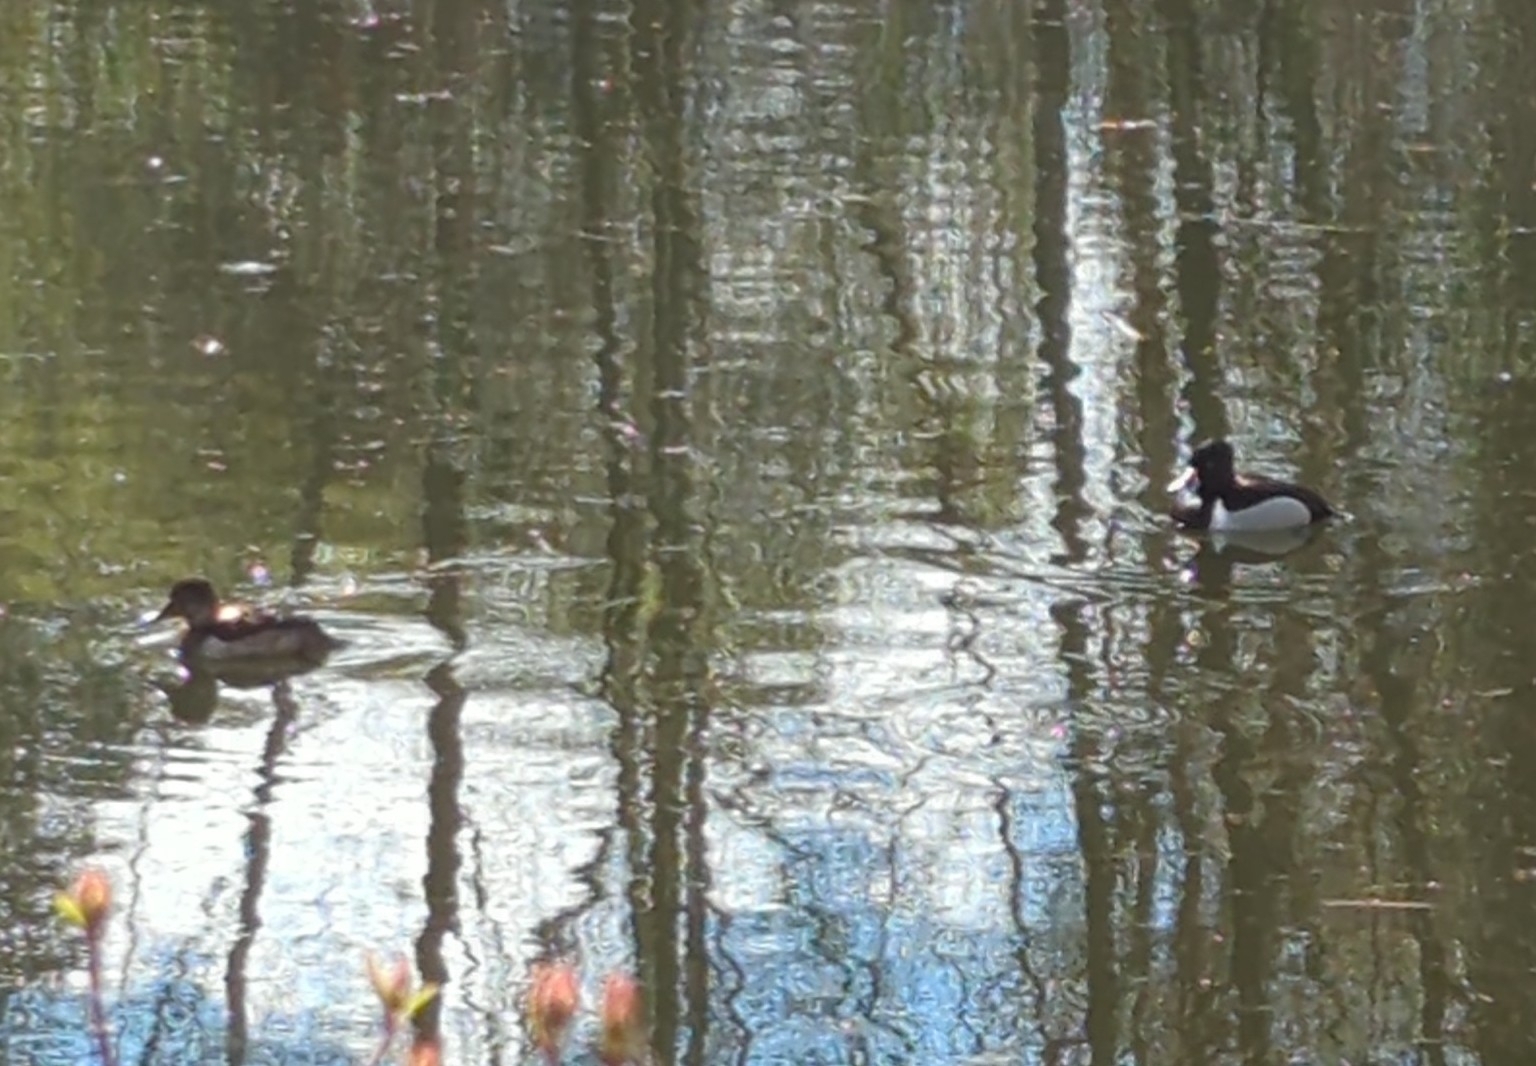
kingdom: Animalia
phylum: Chordata
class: Aves
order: Anseriformes
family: Anatidae
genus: Aythya
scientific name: Aythya collaris
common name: Ring-necked duck
